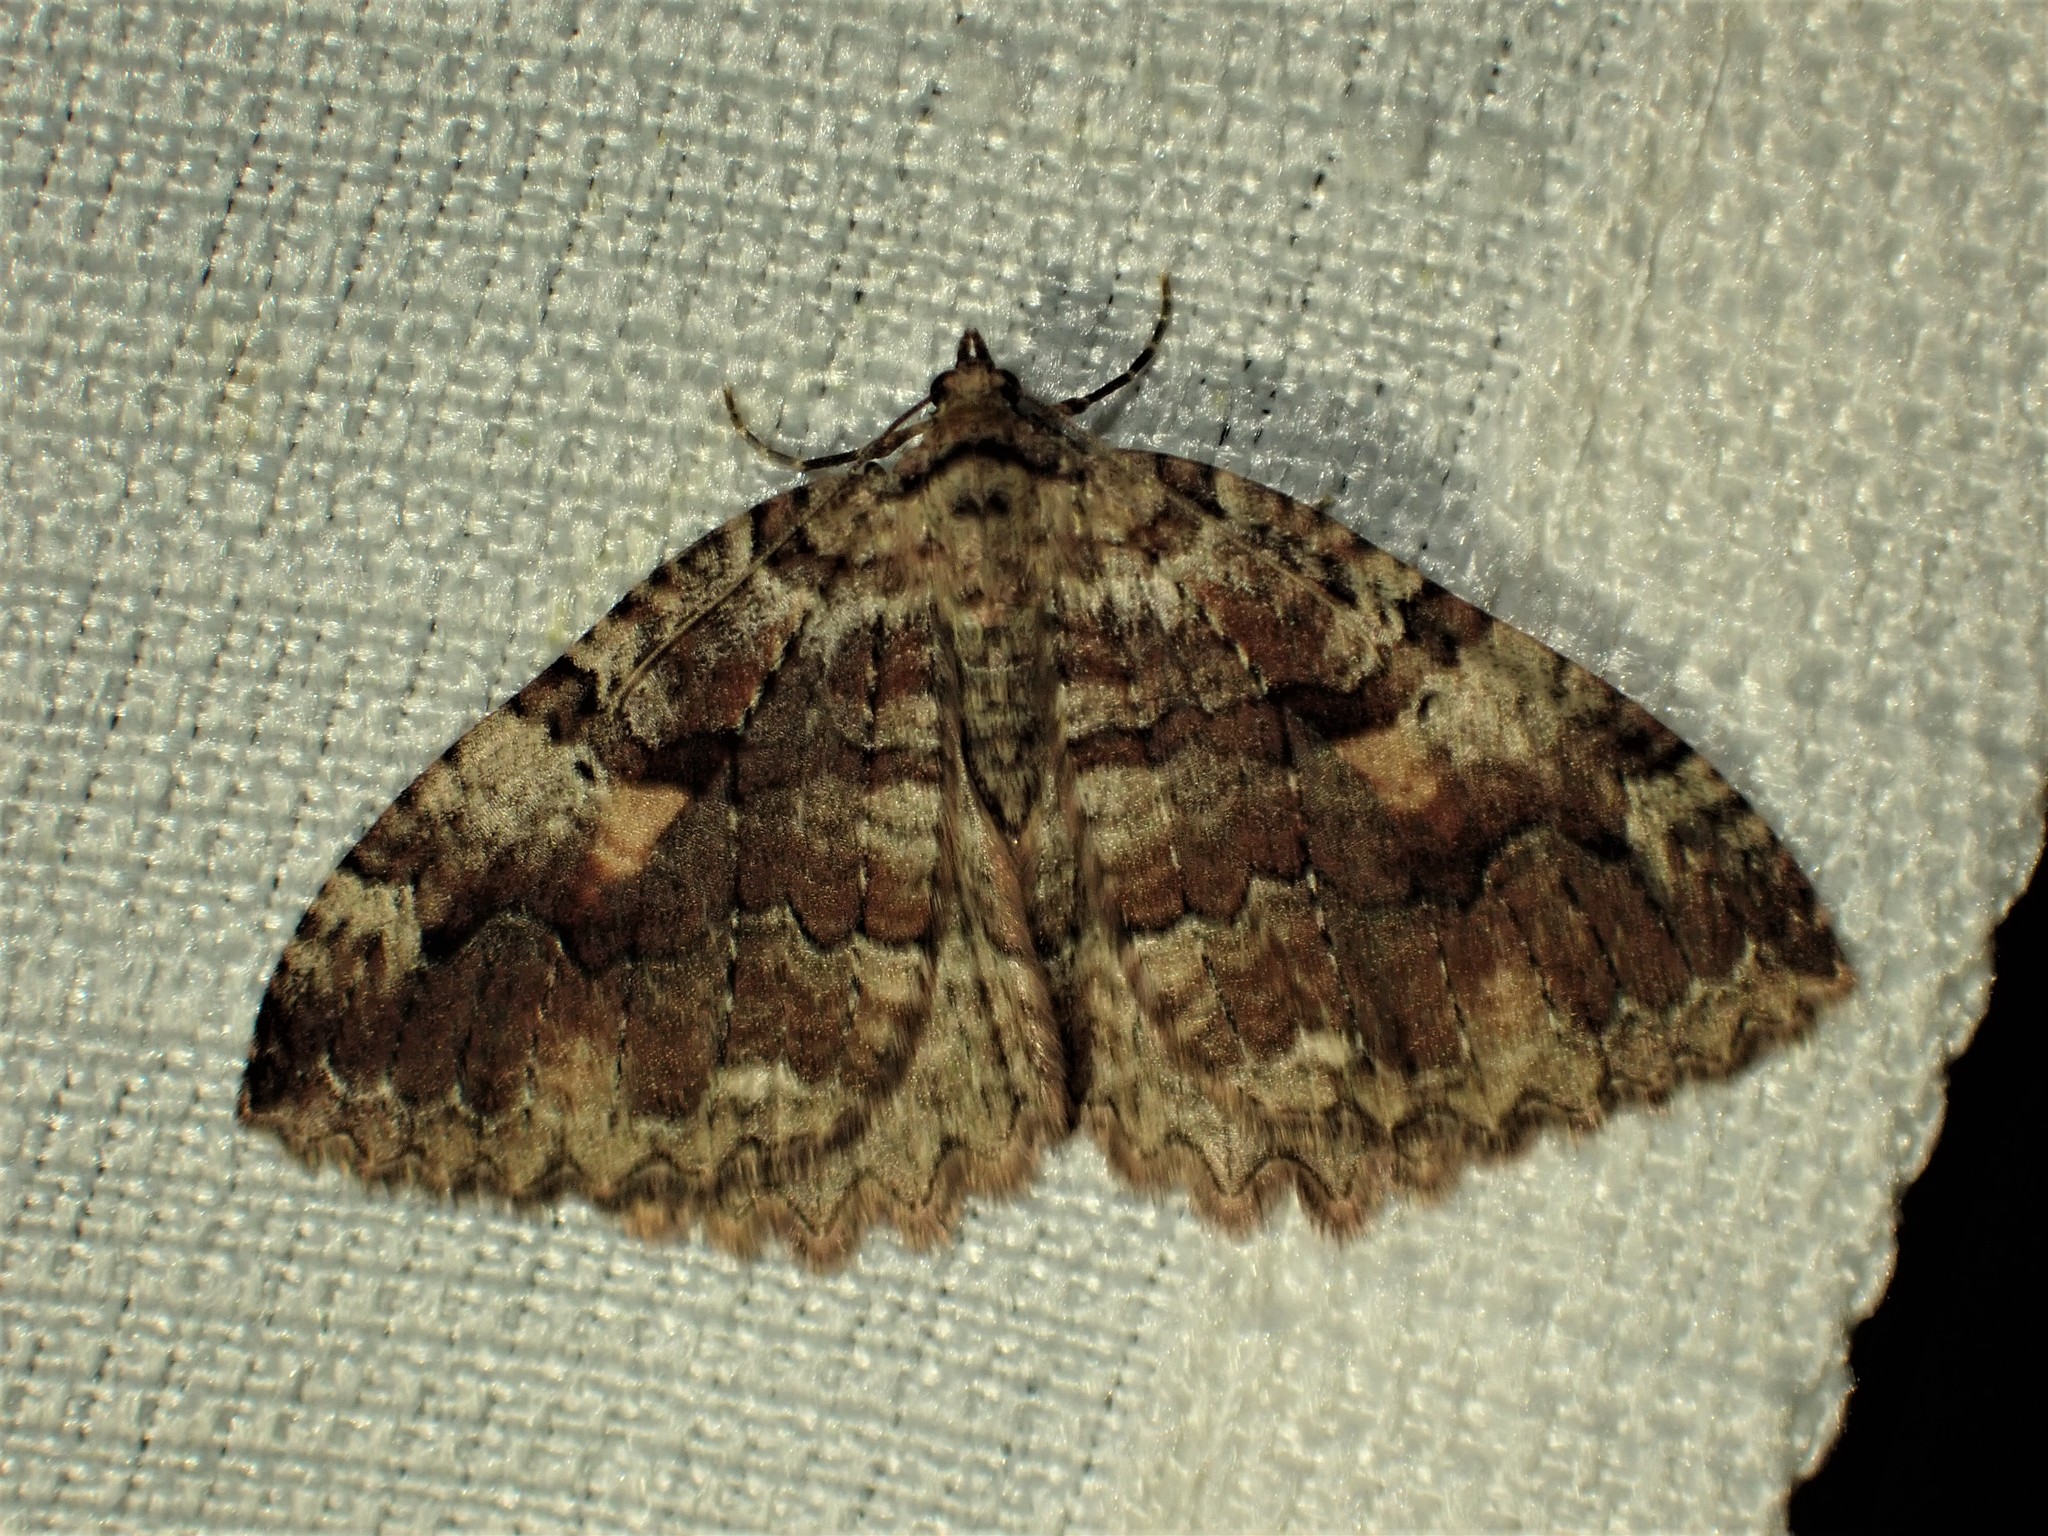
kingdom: Animalia
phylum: Arthropoda
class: Insecta
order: Lepidoptera
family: Geometridae
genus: Triphosa
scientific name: Triphosa haesitata
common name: Tissue moth
